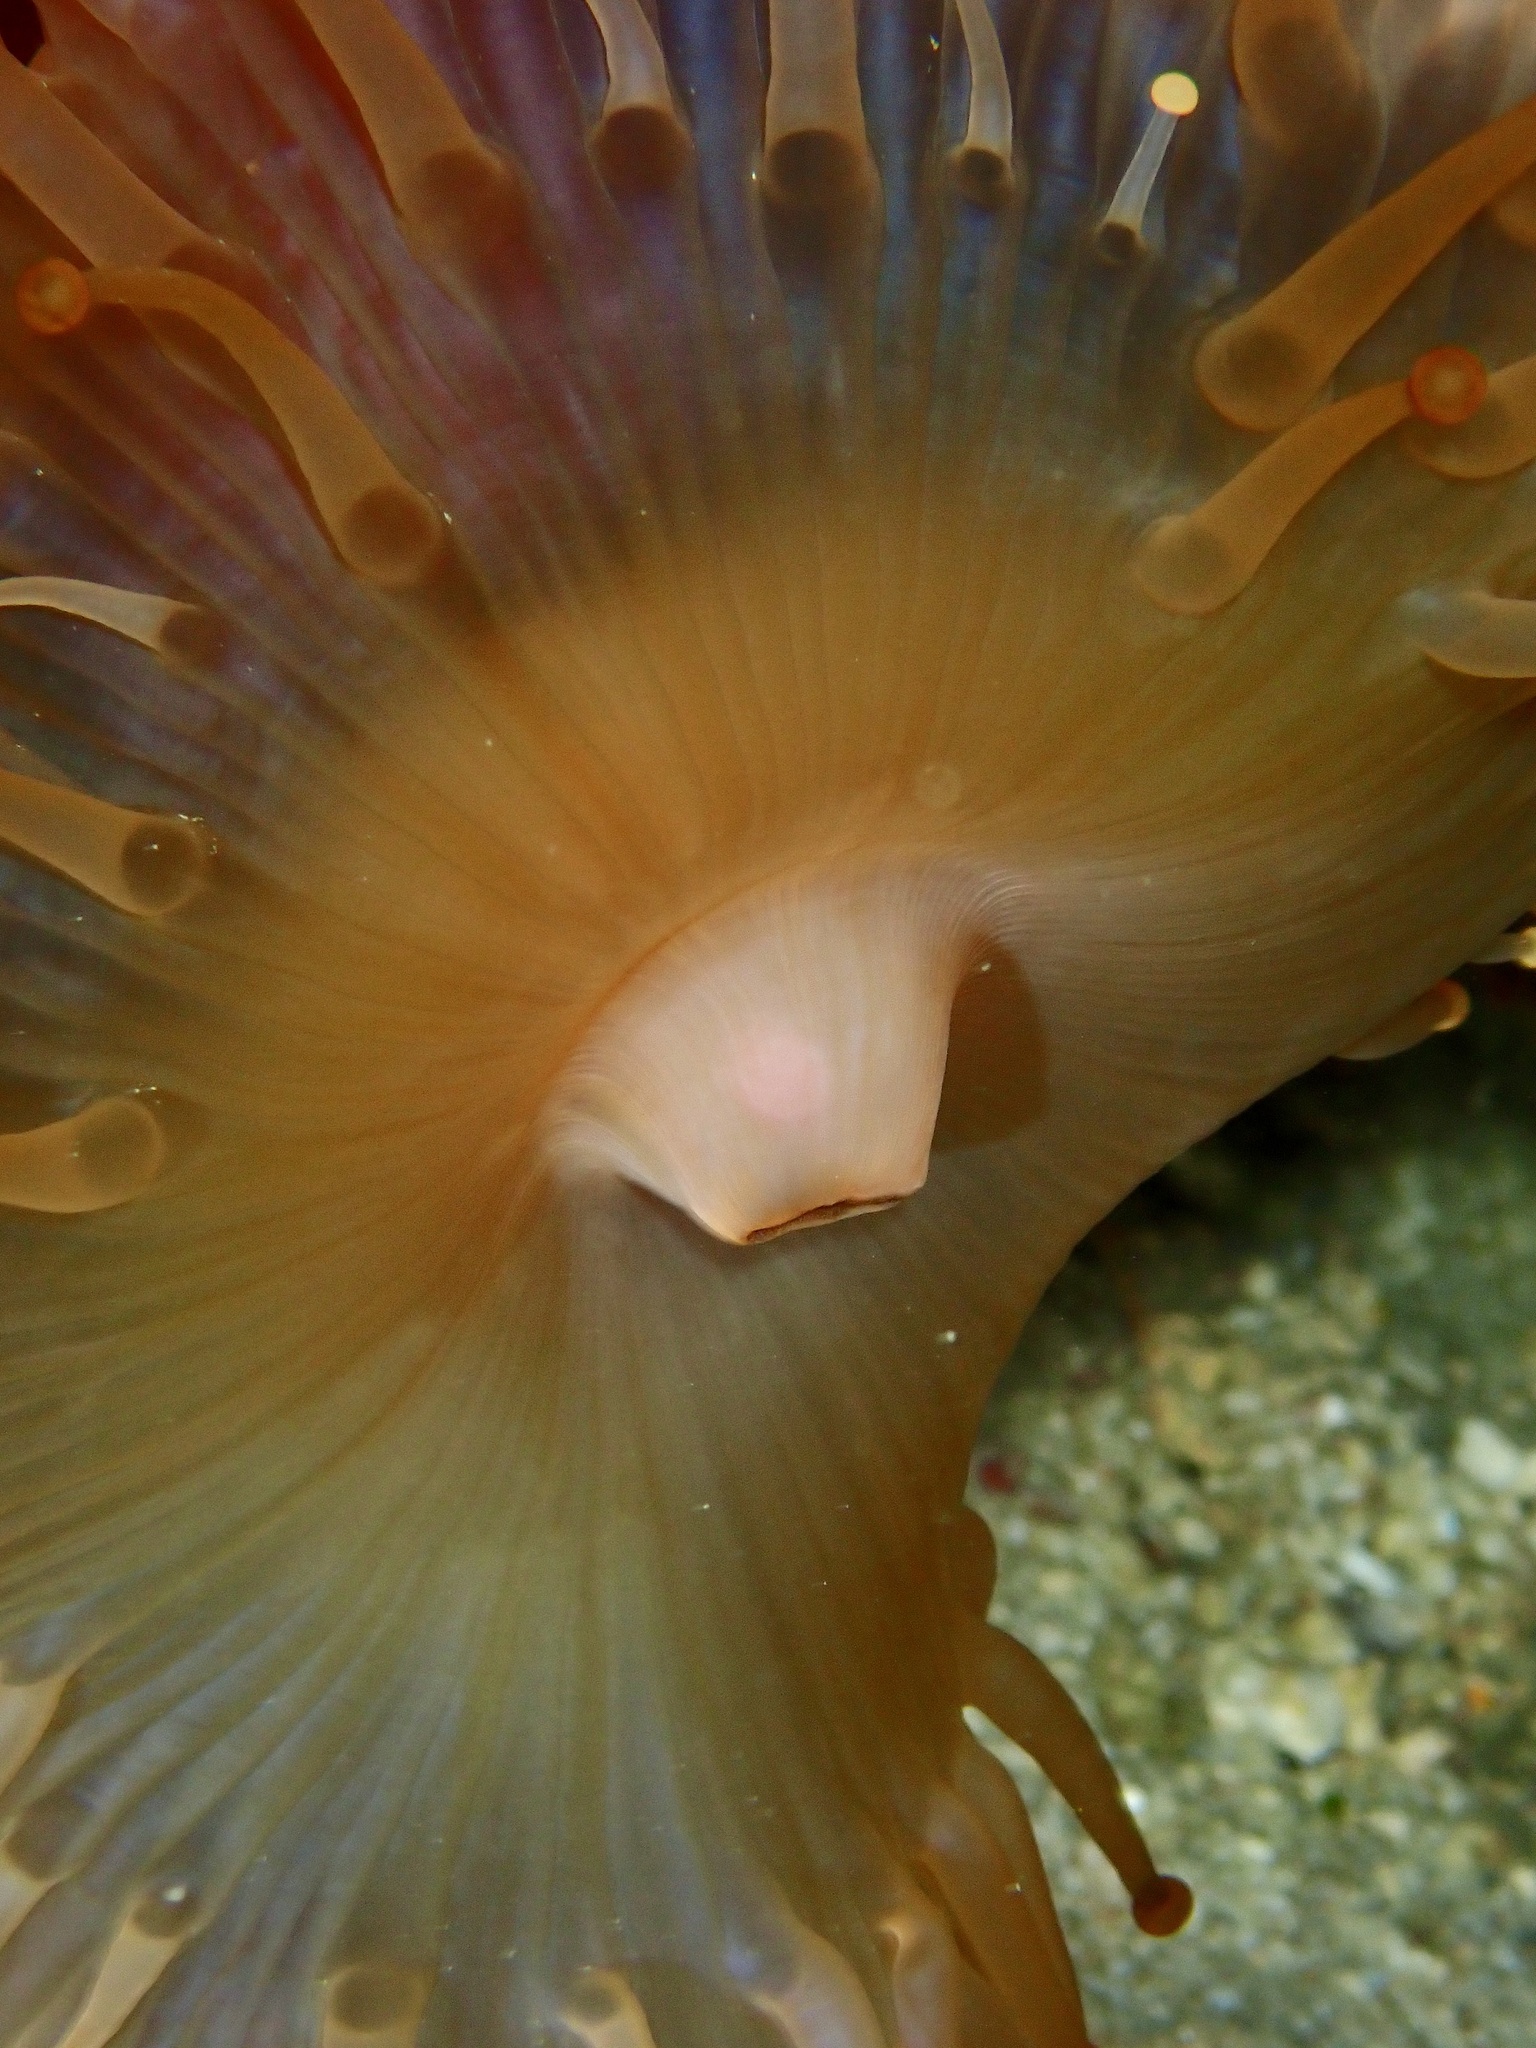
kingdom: Animalia
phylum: Cnidaria
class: Anthozoa
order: Corallimorpharia
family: Corallimorphidae
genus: Paracorynactis
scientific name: Paracorynactis hoplites
